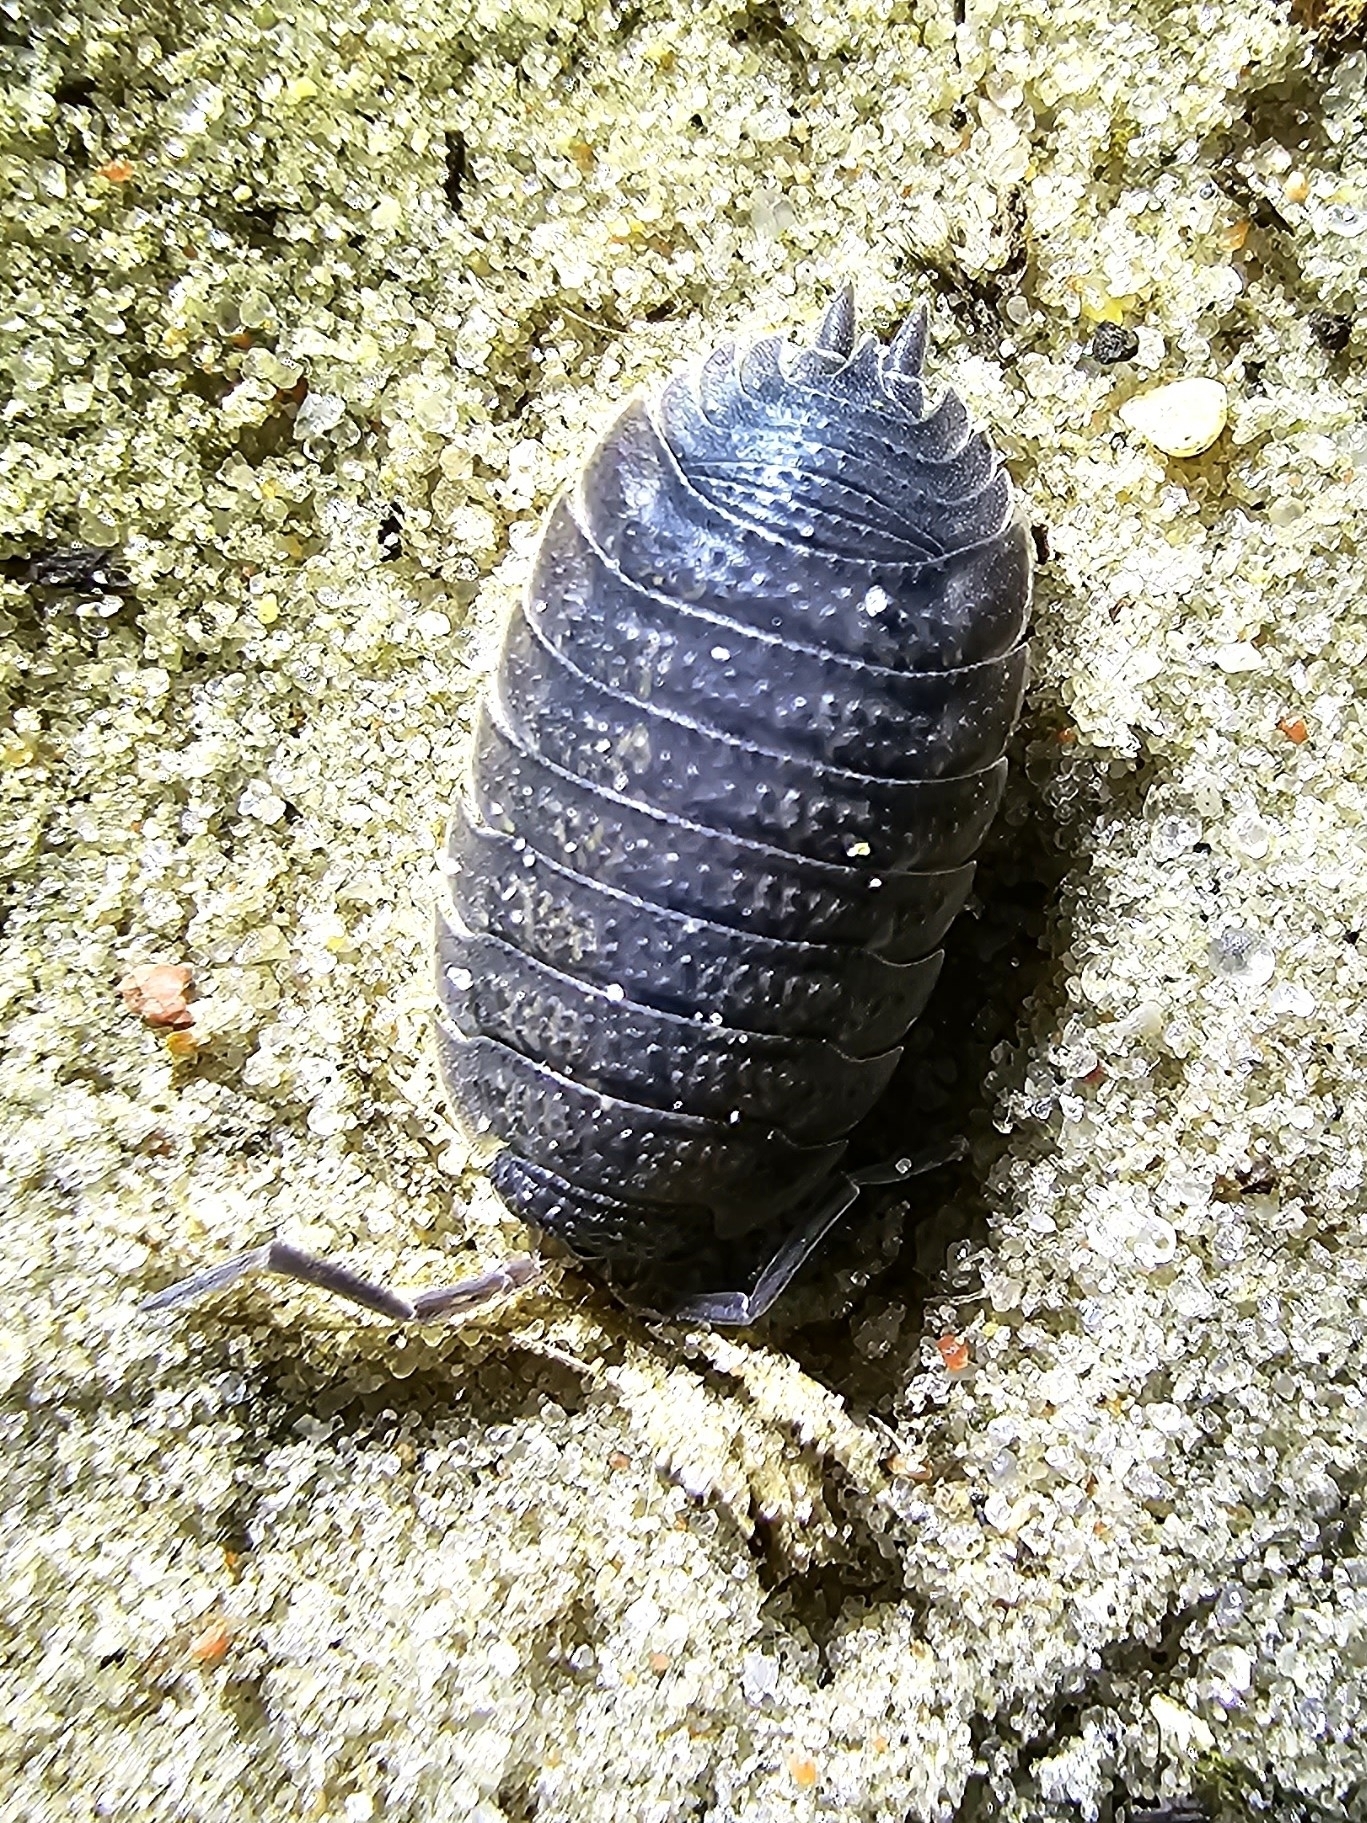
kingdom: Animalia
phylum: Arthropoda
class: Malacostraca
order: Isopoda
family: Porcellionidae
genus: Porcellio
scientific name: Porcellio scaber
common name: Common rough woodlouse
